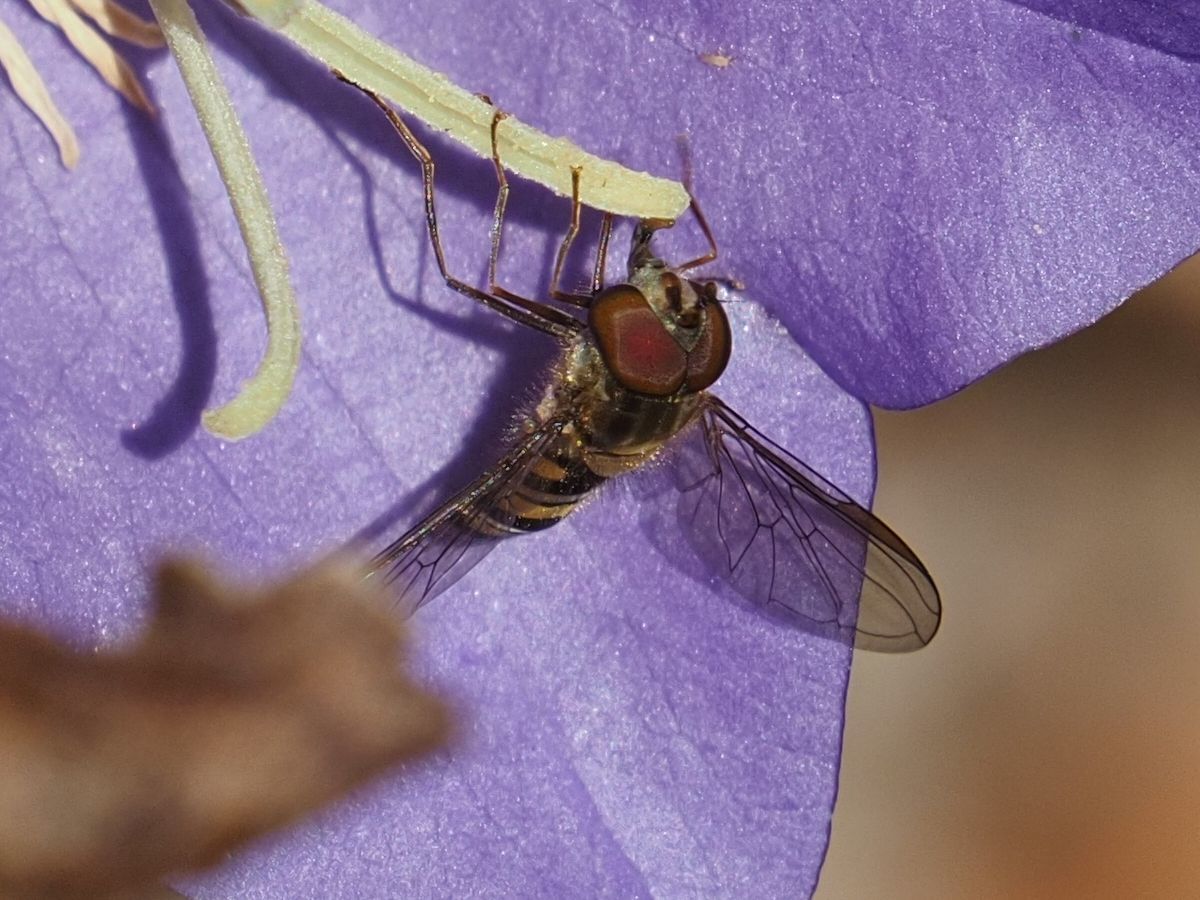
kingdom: Animalia
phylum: Arthropoda
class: Insecta
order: Diptera
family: Syrphidae
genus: Episyrphus
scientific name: Episyrphus balteatus
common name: Marmalade hoverfly
